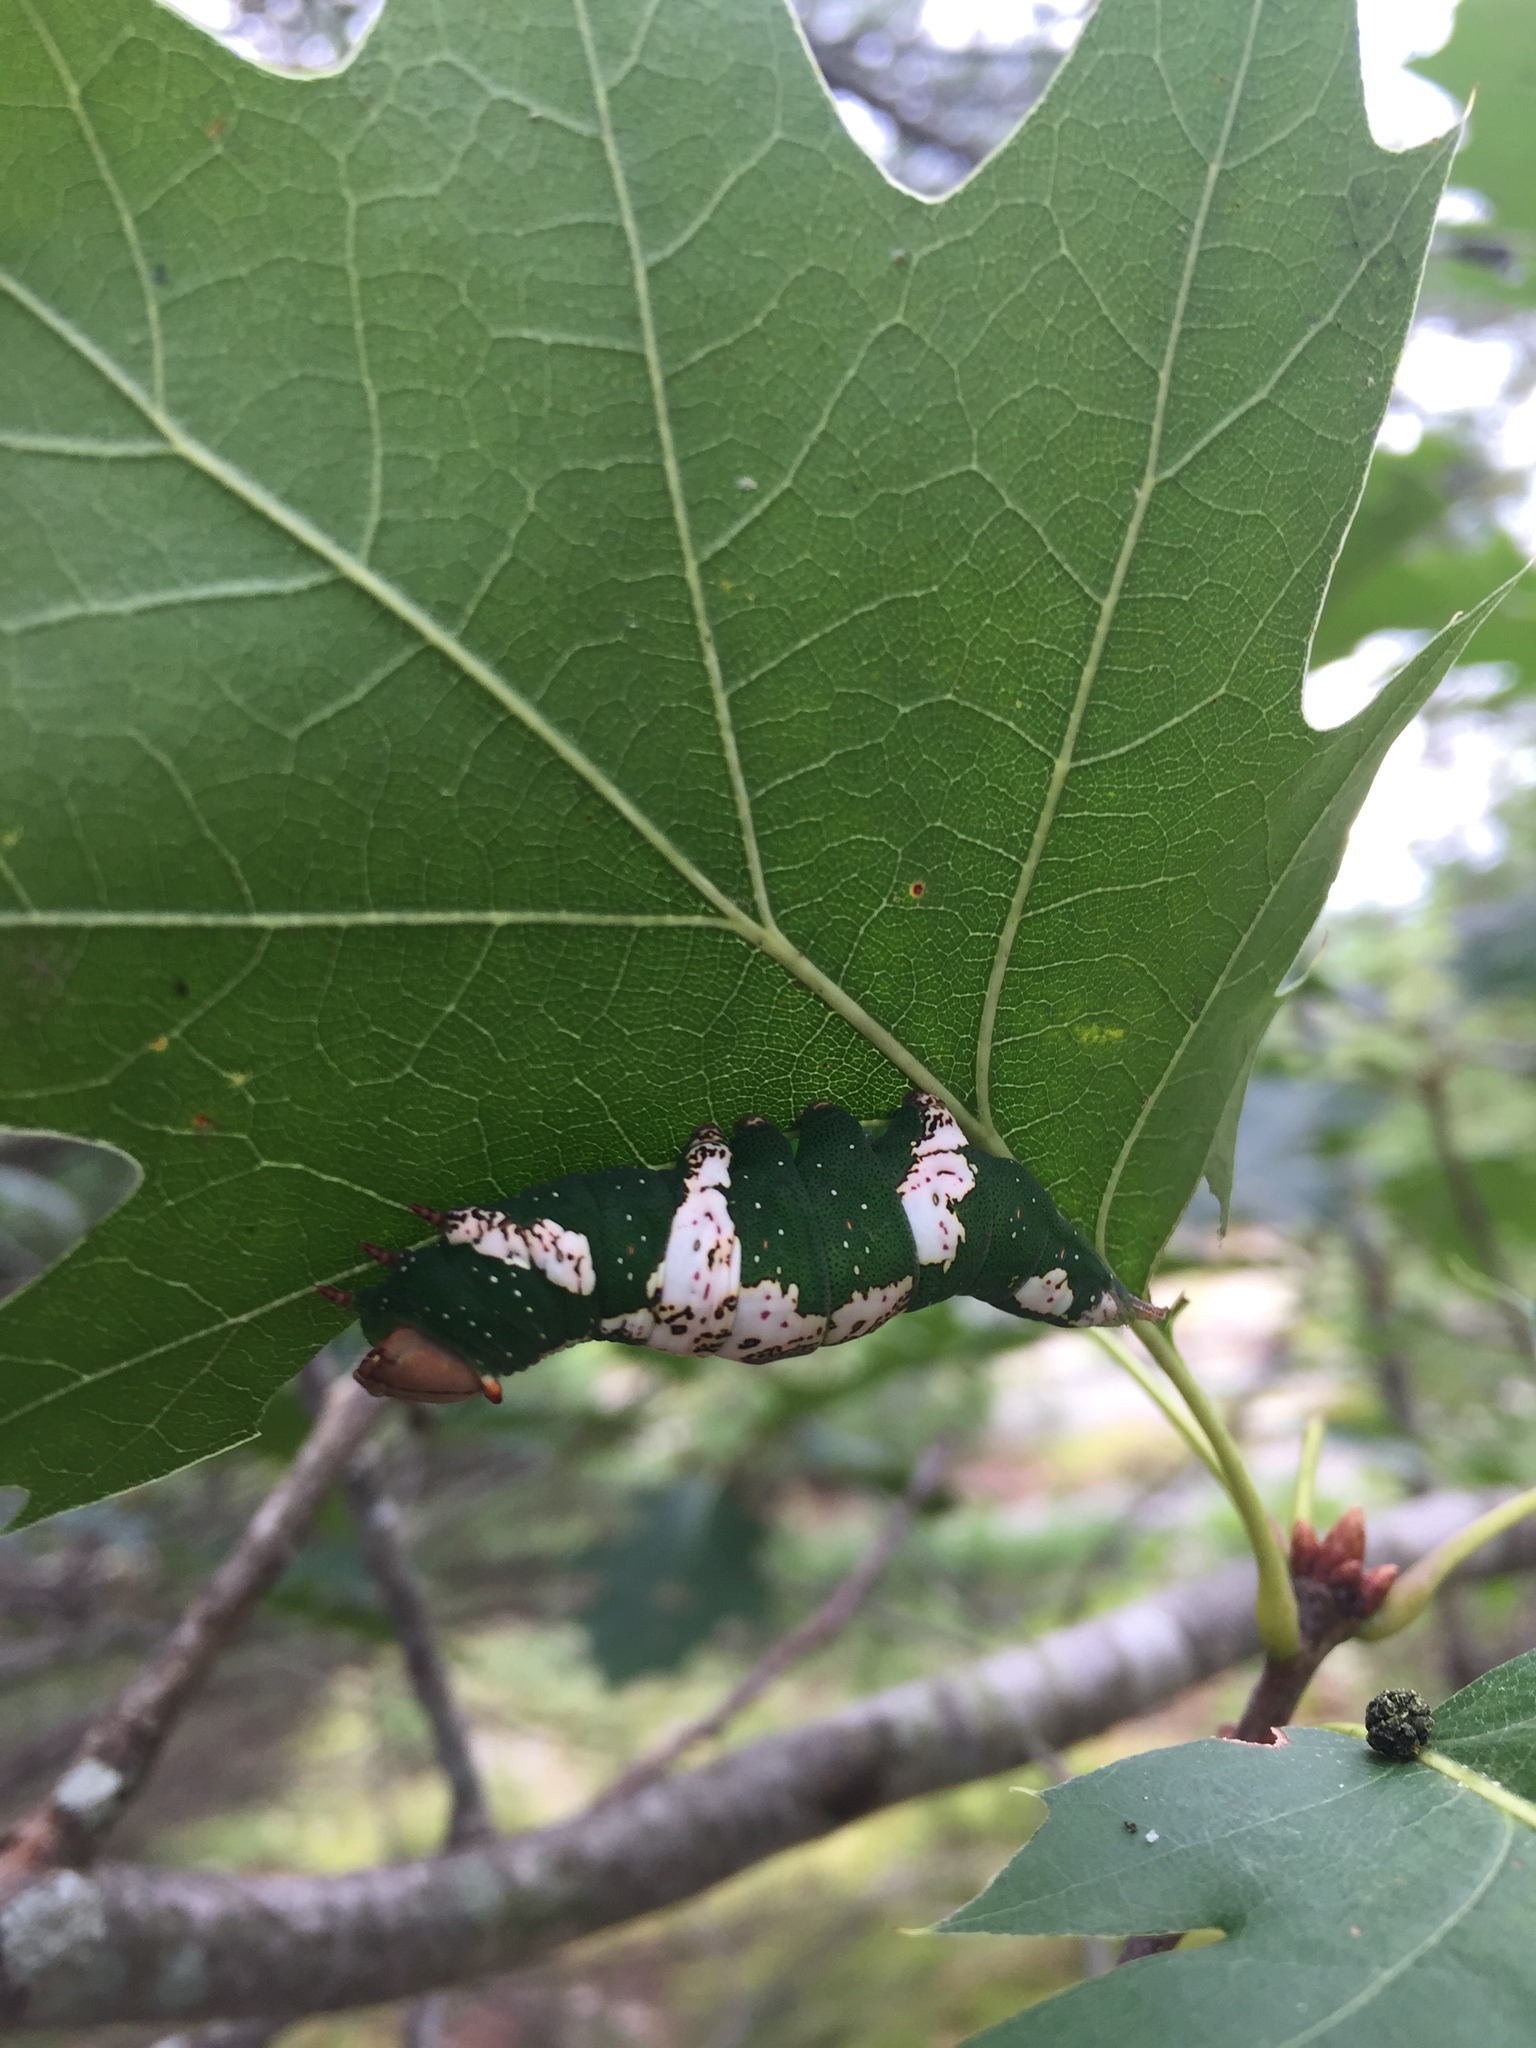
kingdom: Animalia
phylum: Arthropoda
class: Insecta
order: Lepidoptera
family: Notodontidae
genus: Heterocampa
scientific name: Heterocampa
